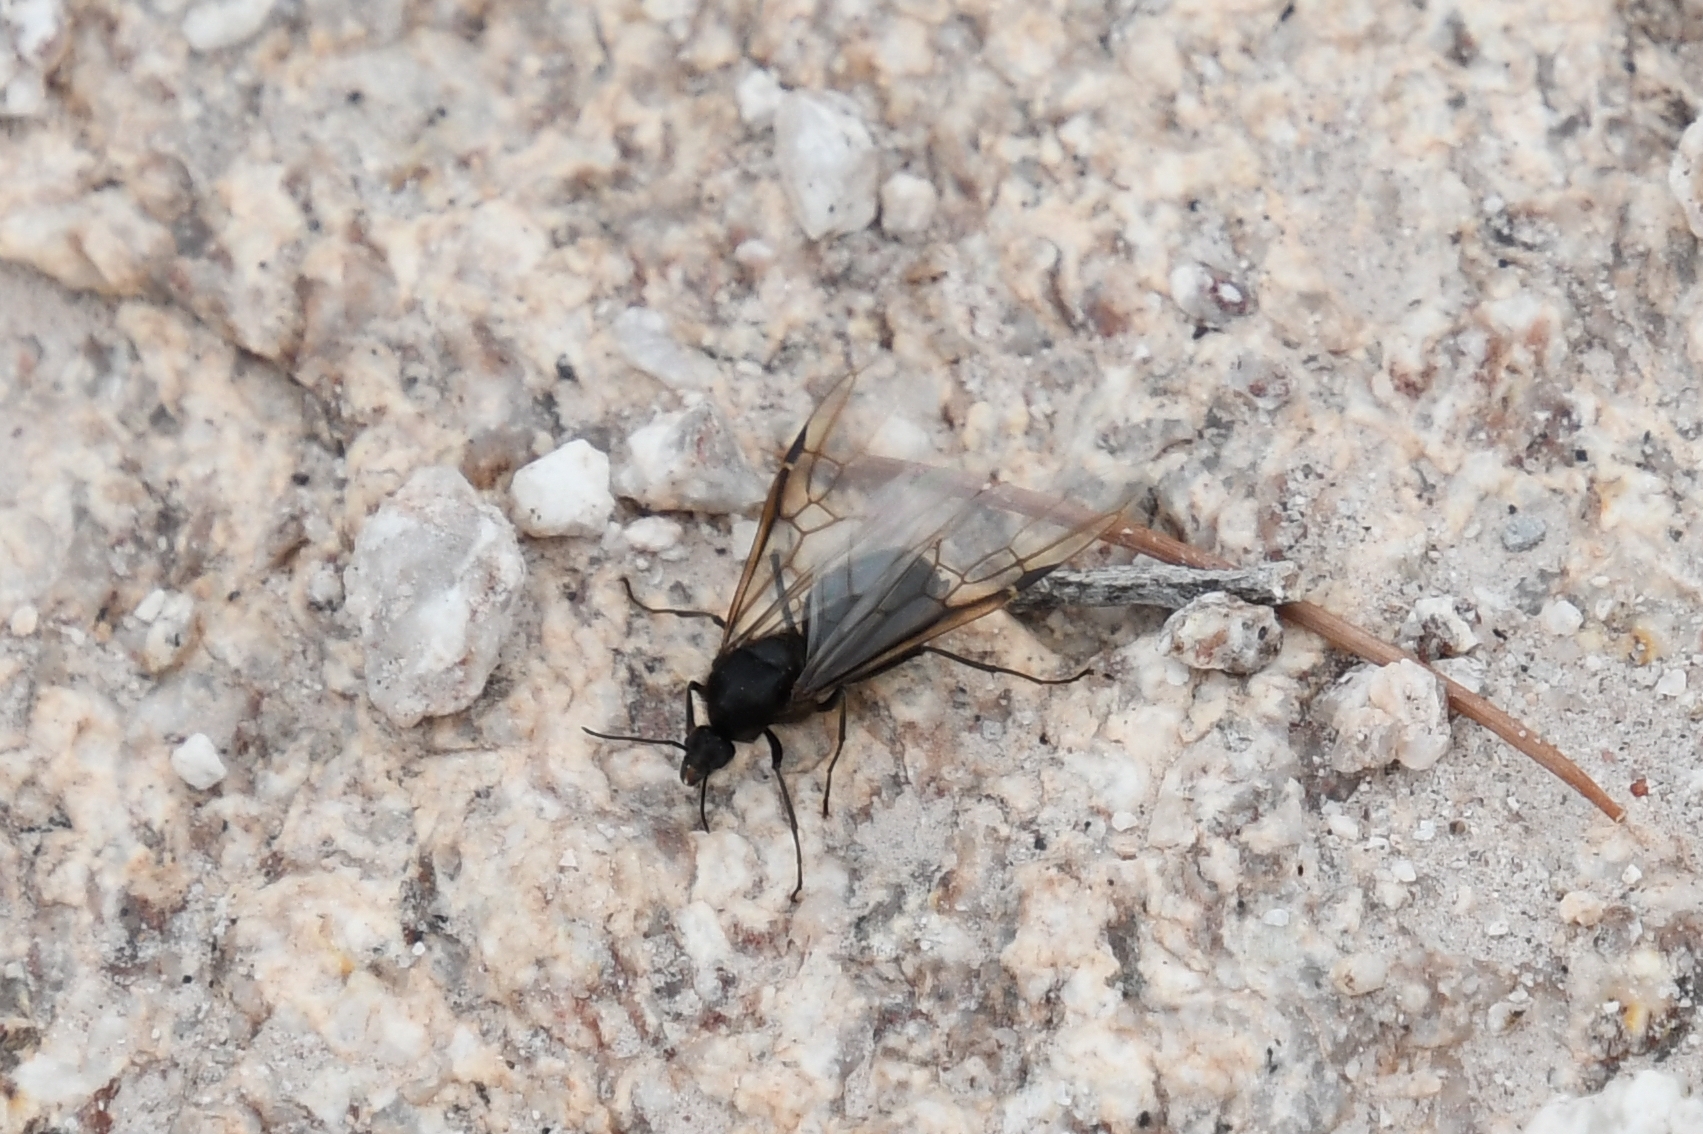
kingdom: Animalia
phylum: Arthropoda
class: Insecta
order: Hymenoptera
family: Formicidae
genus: Liometopum
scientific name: Liometopum apiculatum
